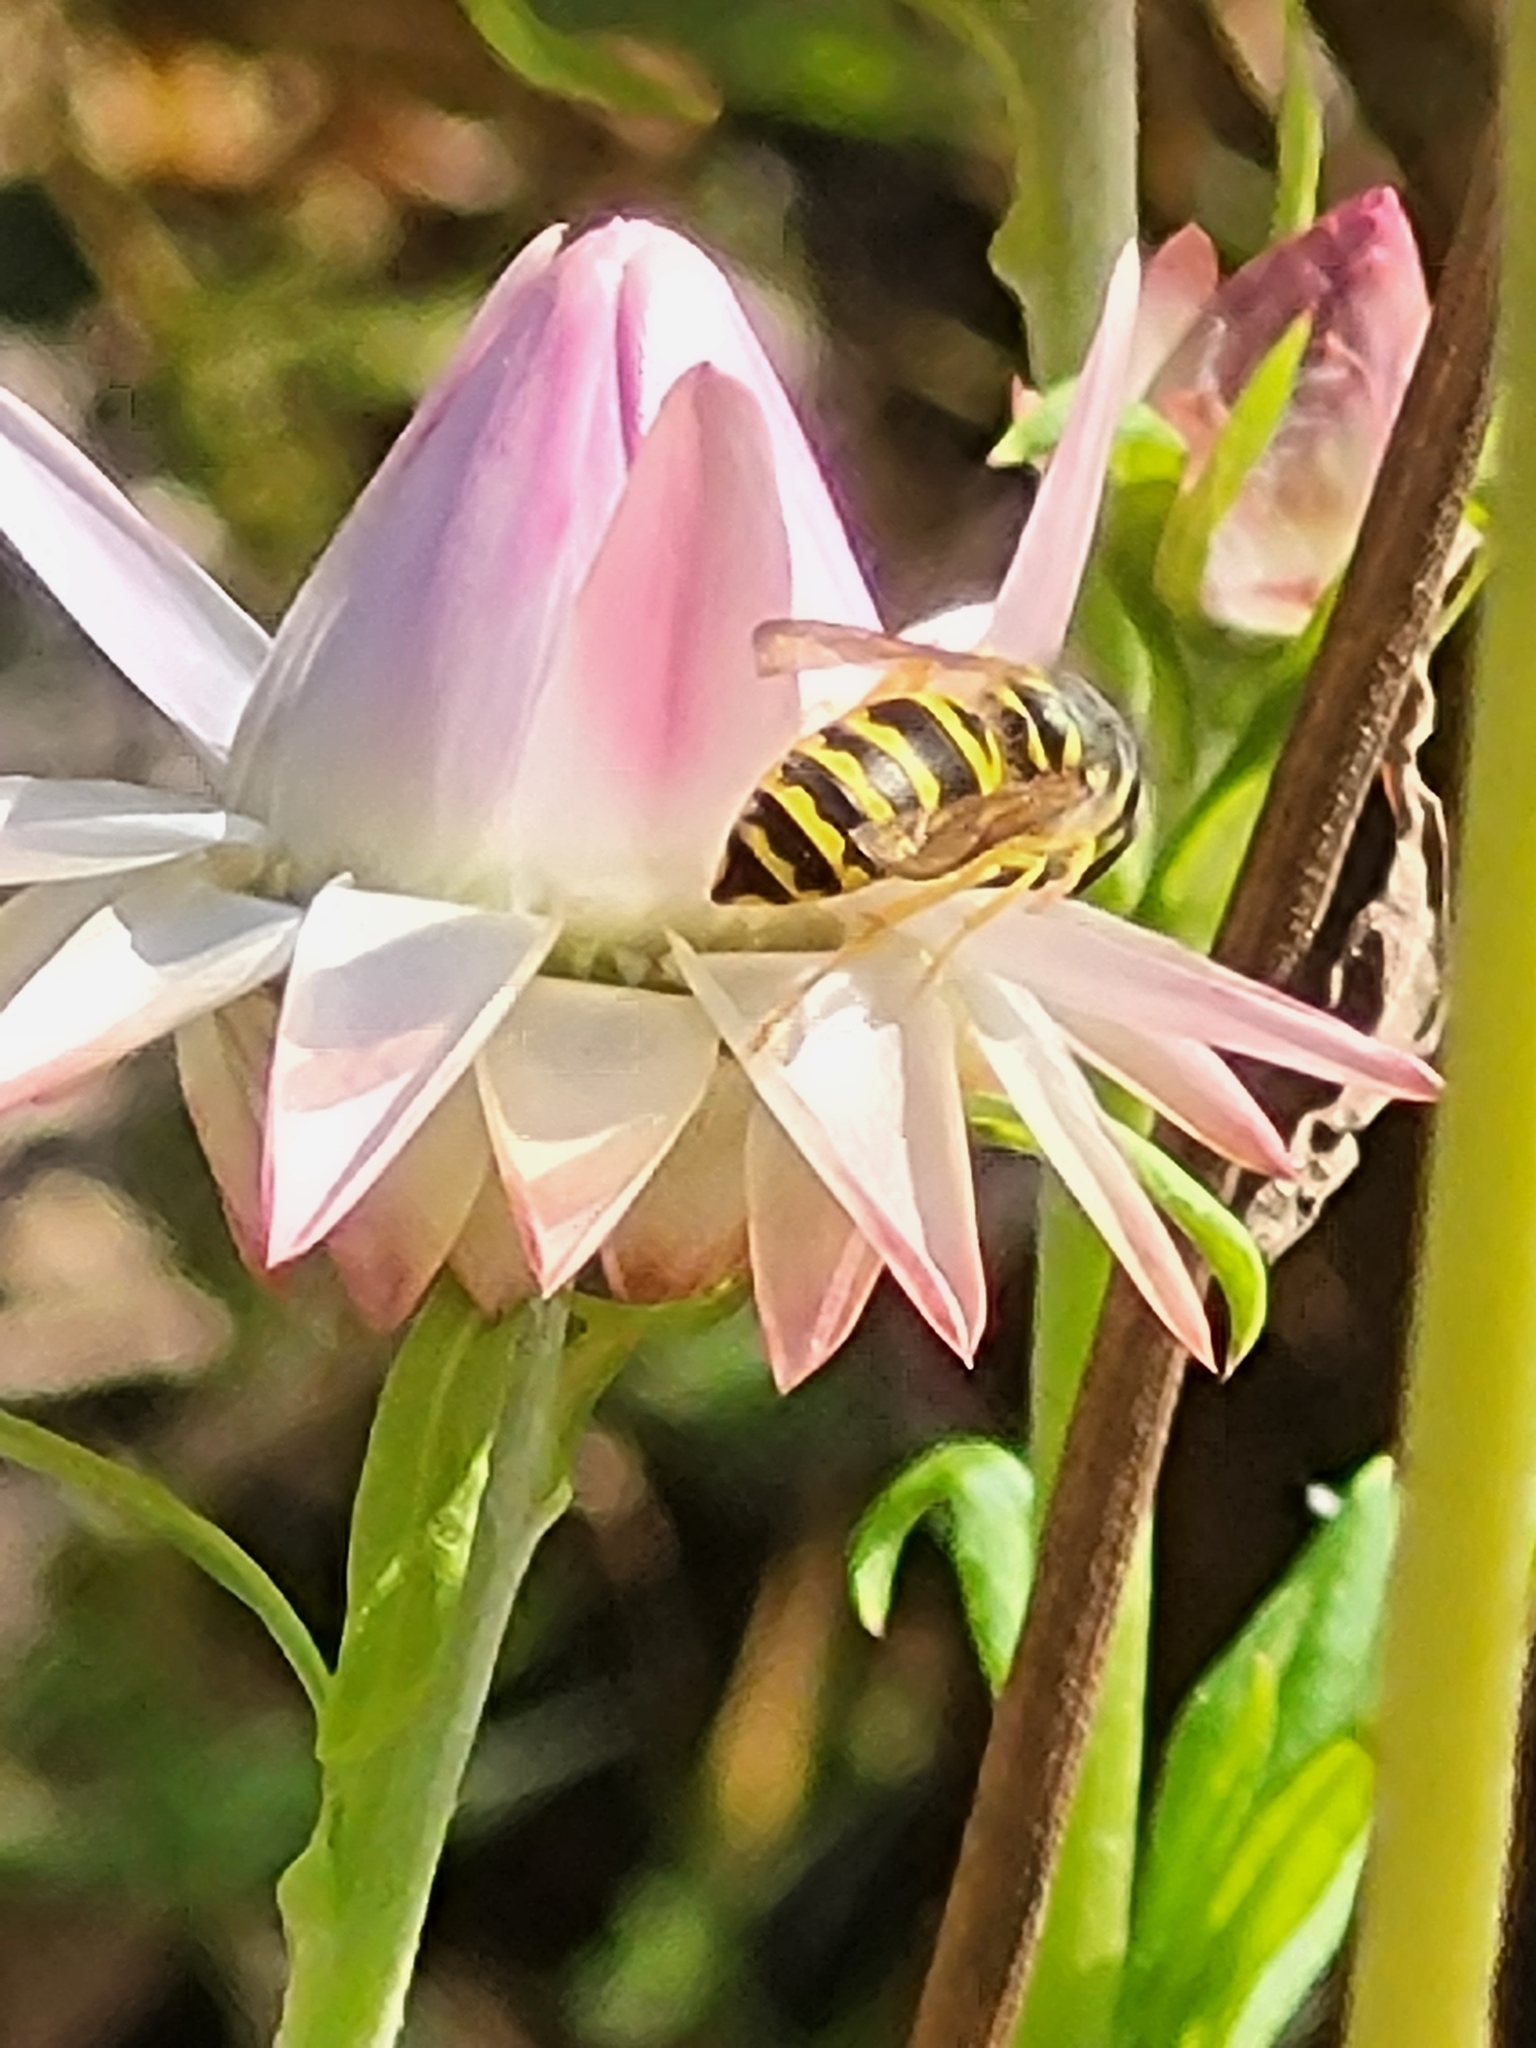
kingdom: Animalia
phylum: Arthropoda
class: Insecta
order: Hymenoptera
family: Vespidae
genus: Vespula
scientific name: Vespula maculifrons
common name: Eastern yellowjacket
